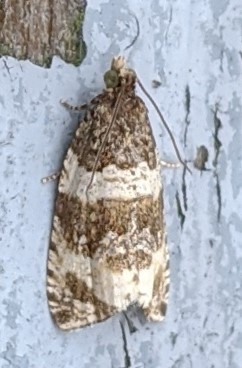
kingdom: Animalia
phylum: Arthropoda
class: Insecta
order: Lepidoptera
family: Tortricidae
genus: Olethreutes
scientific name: Olethreutes fasciatana
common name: Banded olethreutes moth
